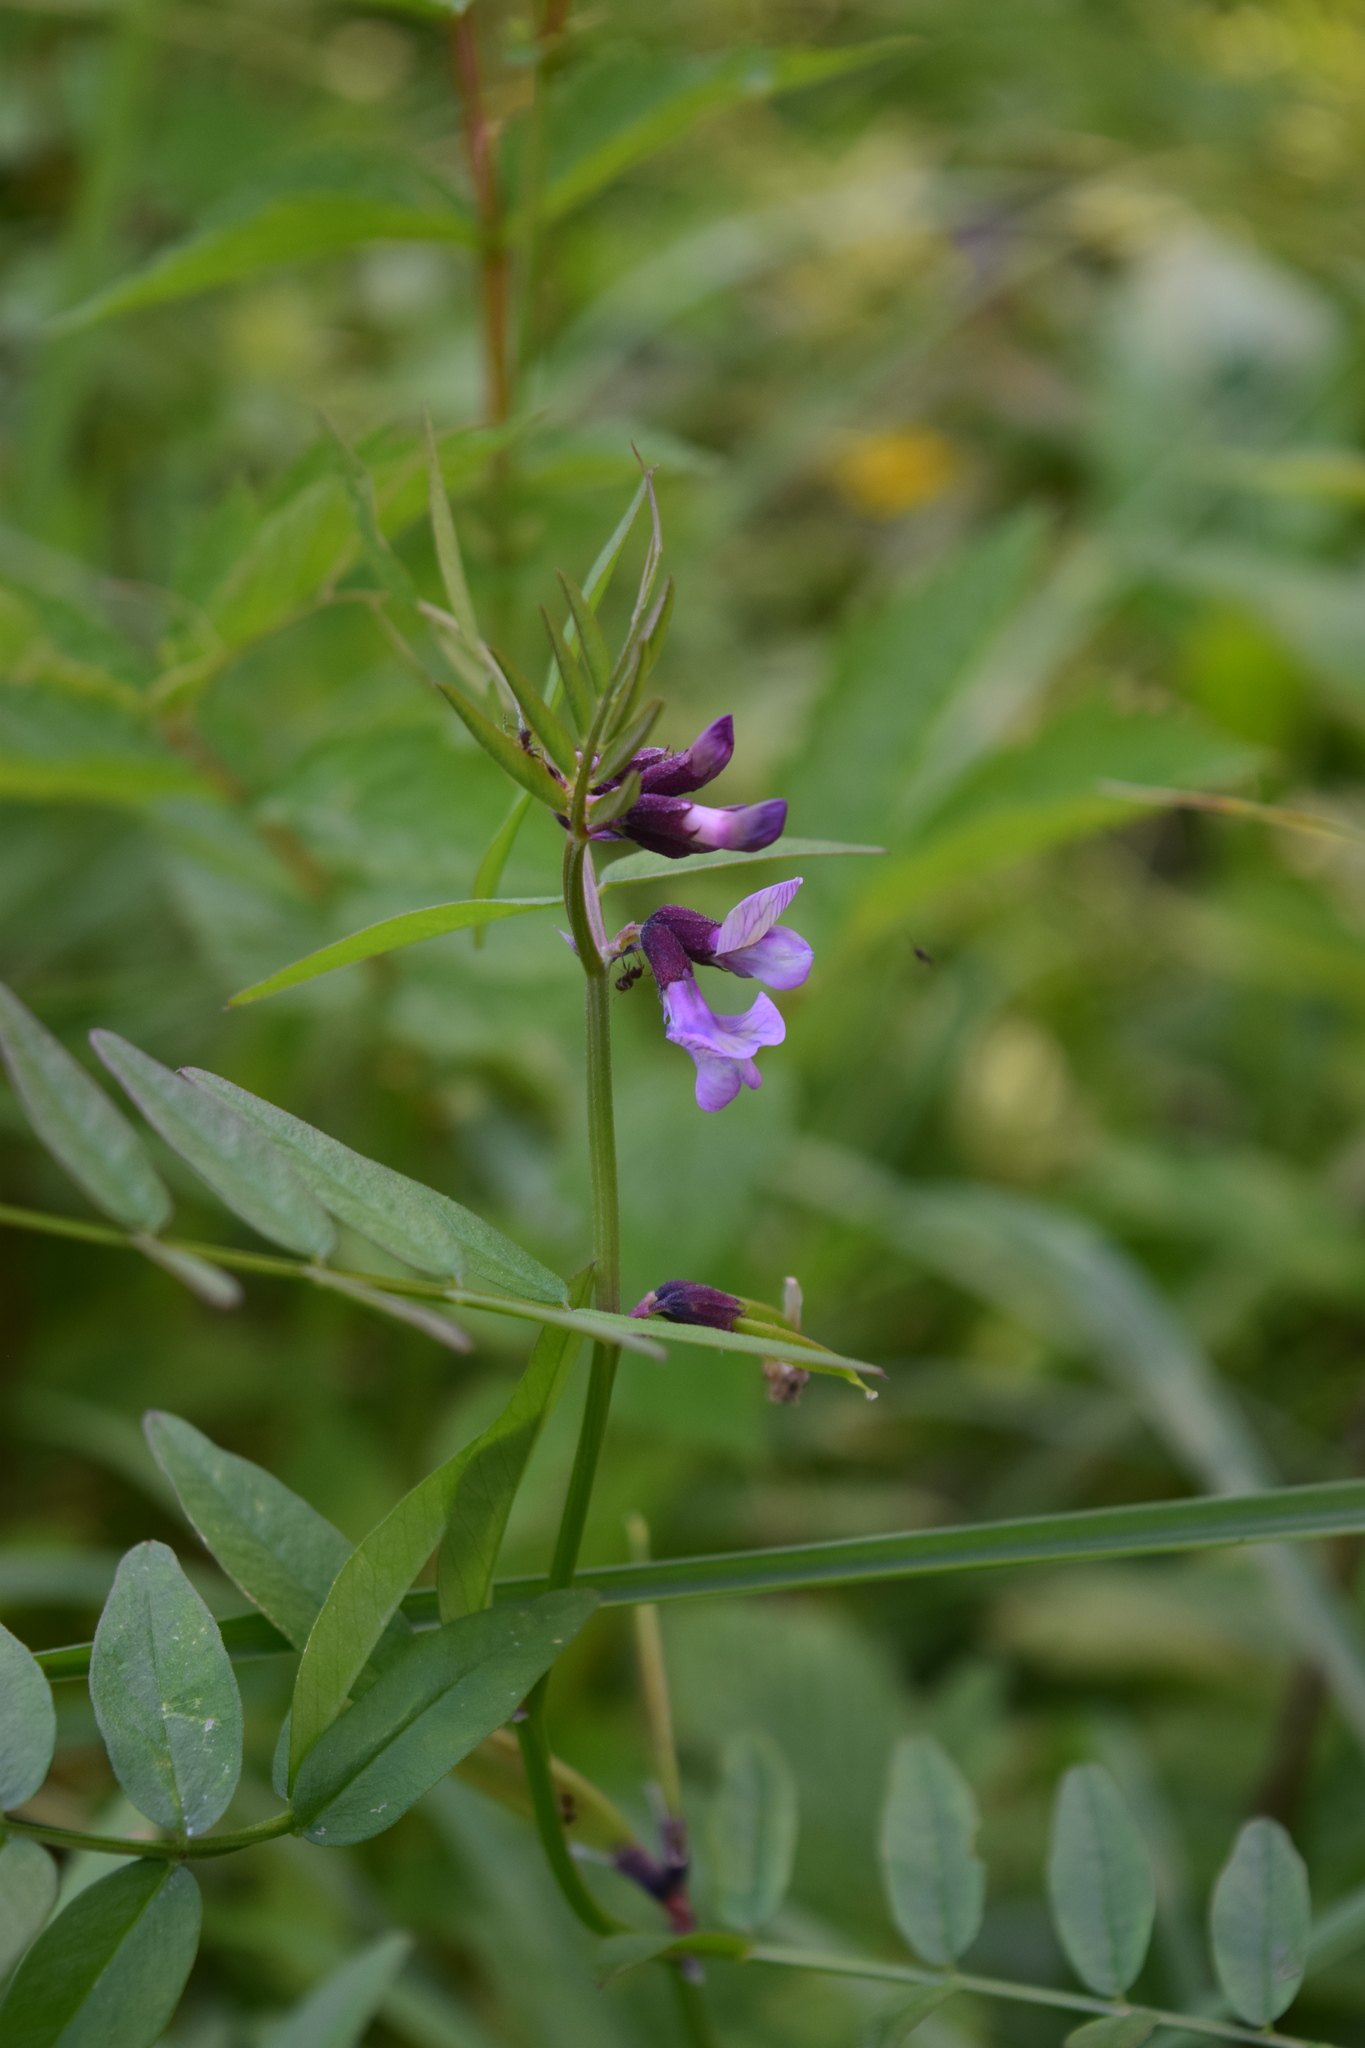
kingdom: Plantae
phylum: Tracheophyta
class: Magnoliopsida
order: Fabales
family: Fabaceae
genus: Vicia
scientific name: Vicia sepium
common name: Bush vetch
